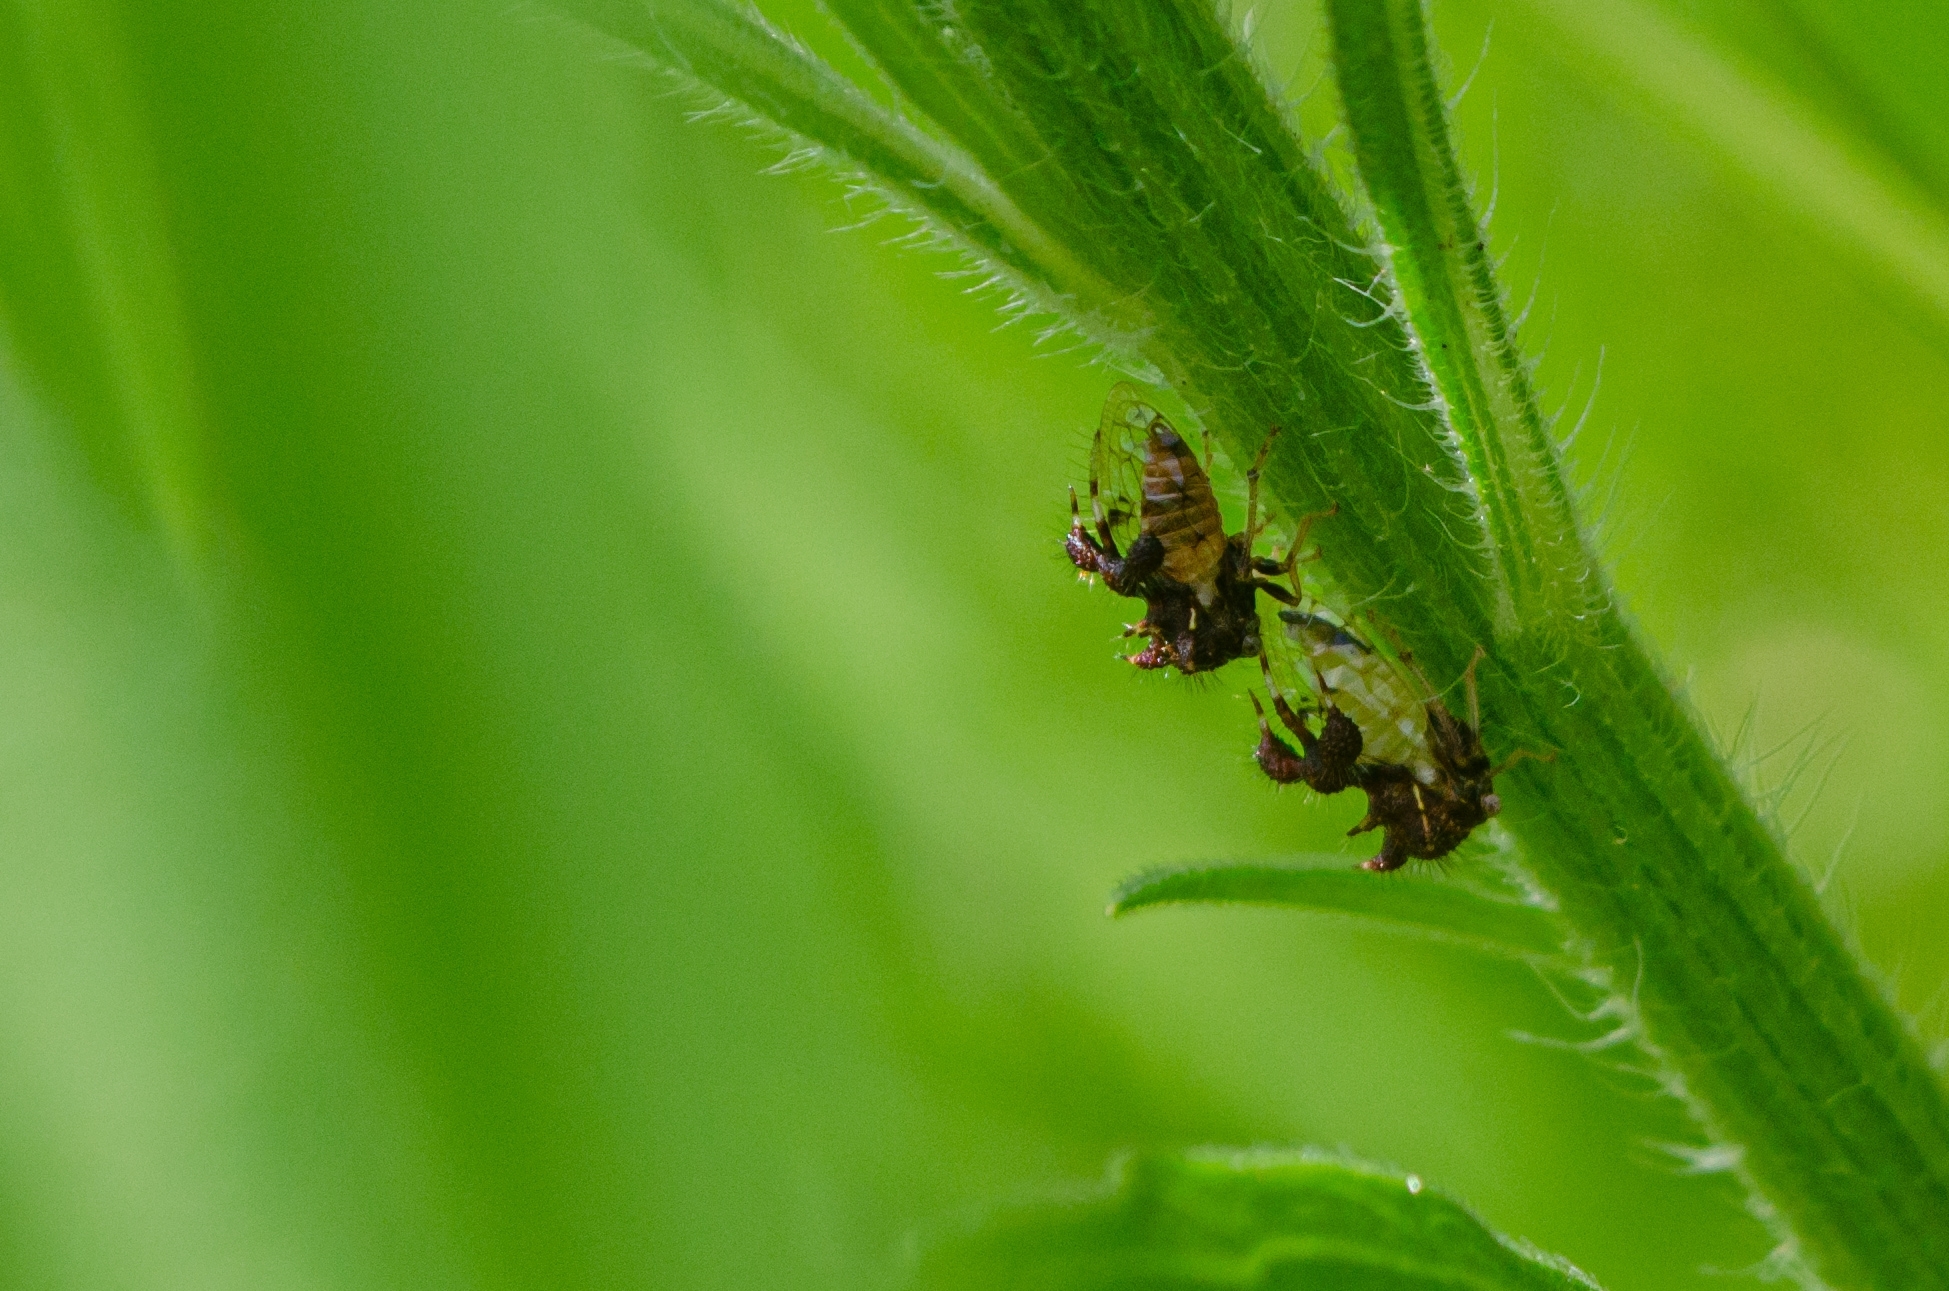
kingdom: Animalia
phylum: Arthropoda
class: Insecta
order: Hemiptera
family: Membracidae
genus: Cyphonia
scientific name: Cyphonia claviger
